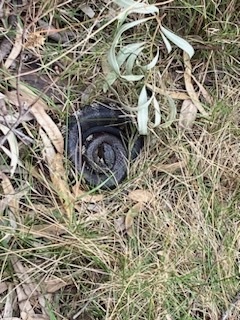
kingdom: Animalia
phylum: Chordata
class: Squamata
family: Elapidae
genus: Notechis
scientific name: Notechis scutatus
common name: Mainland tiger snake
